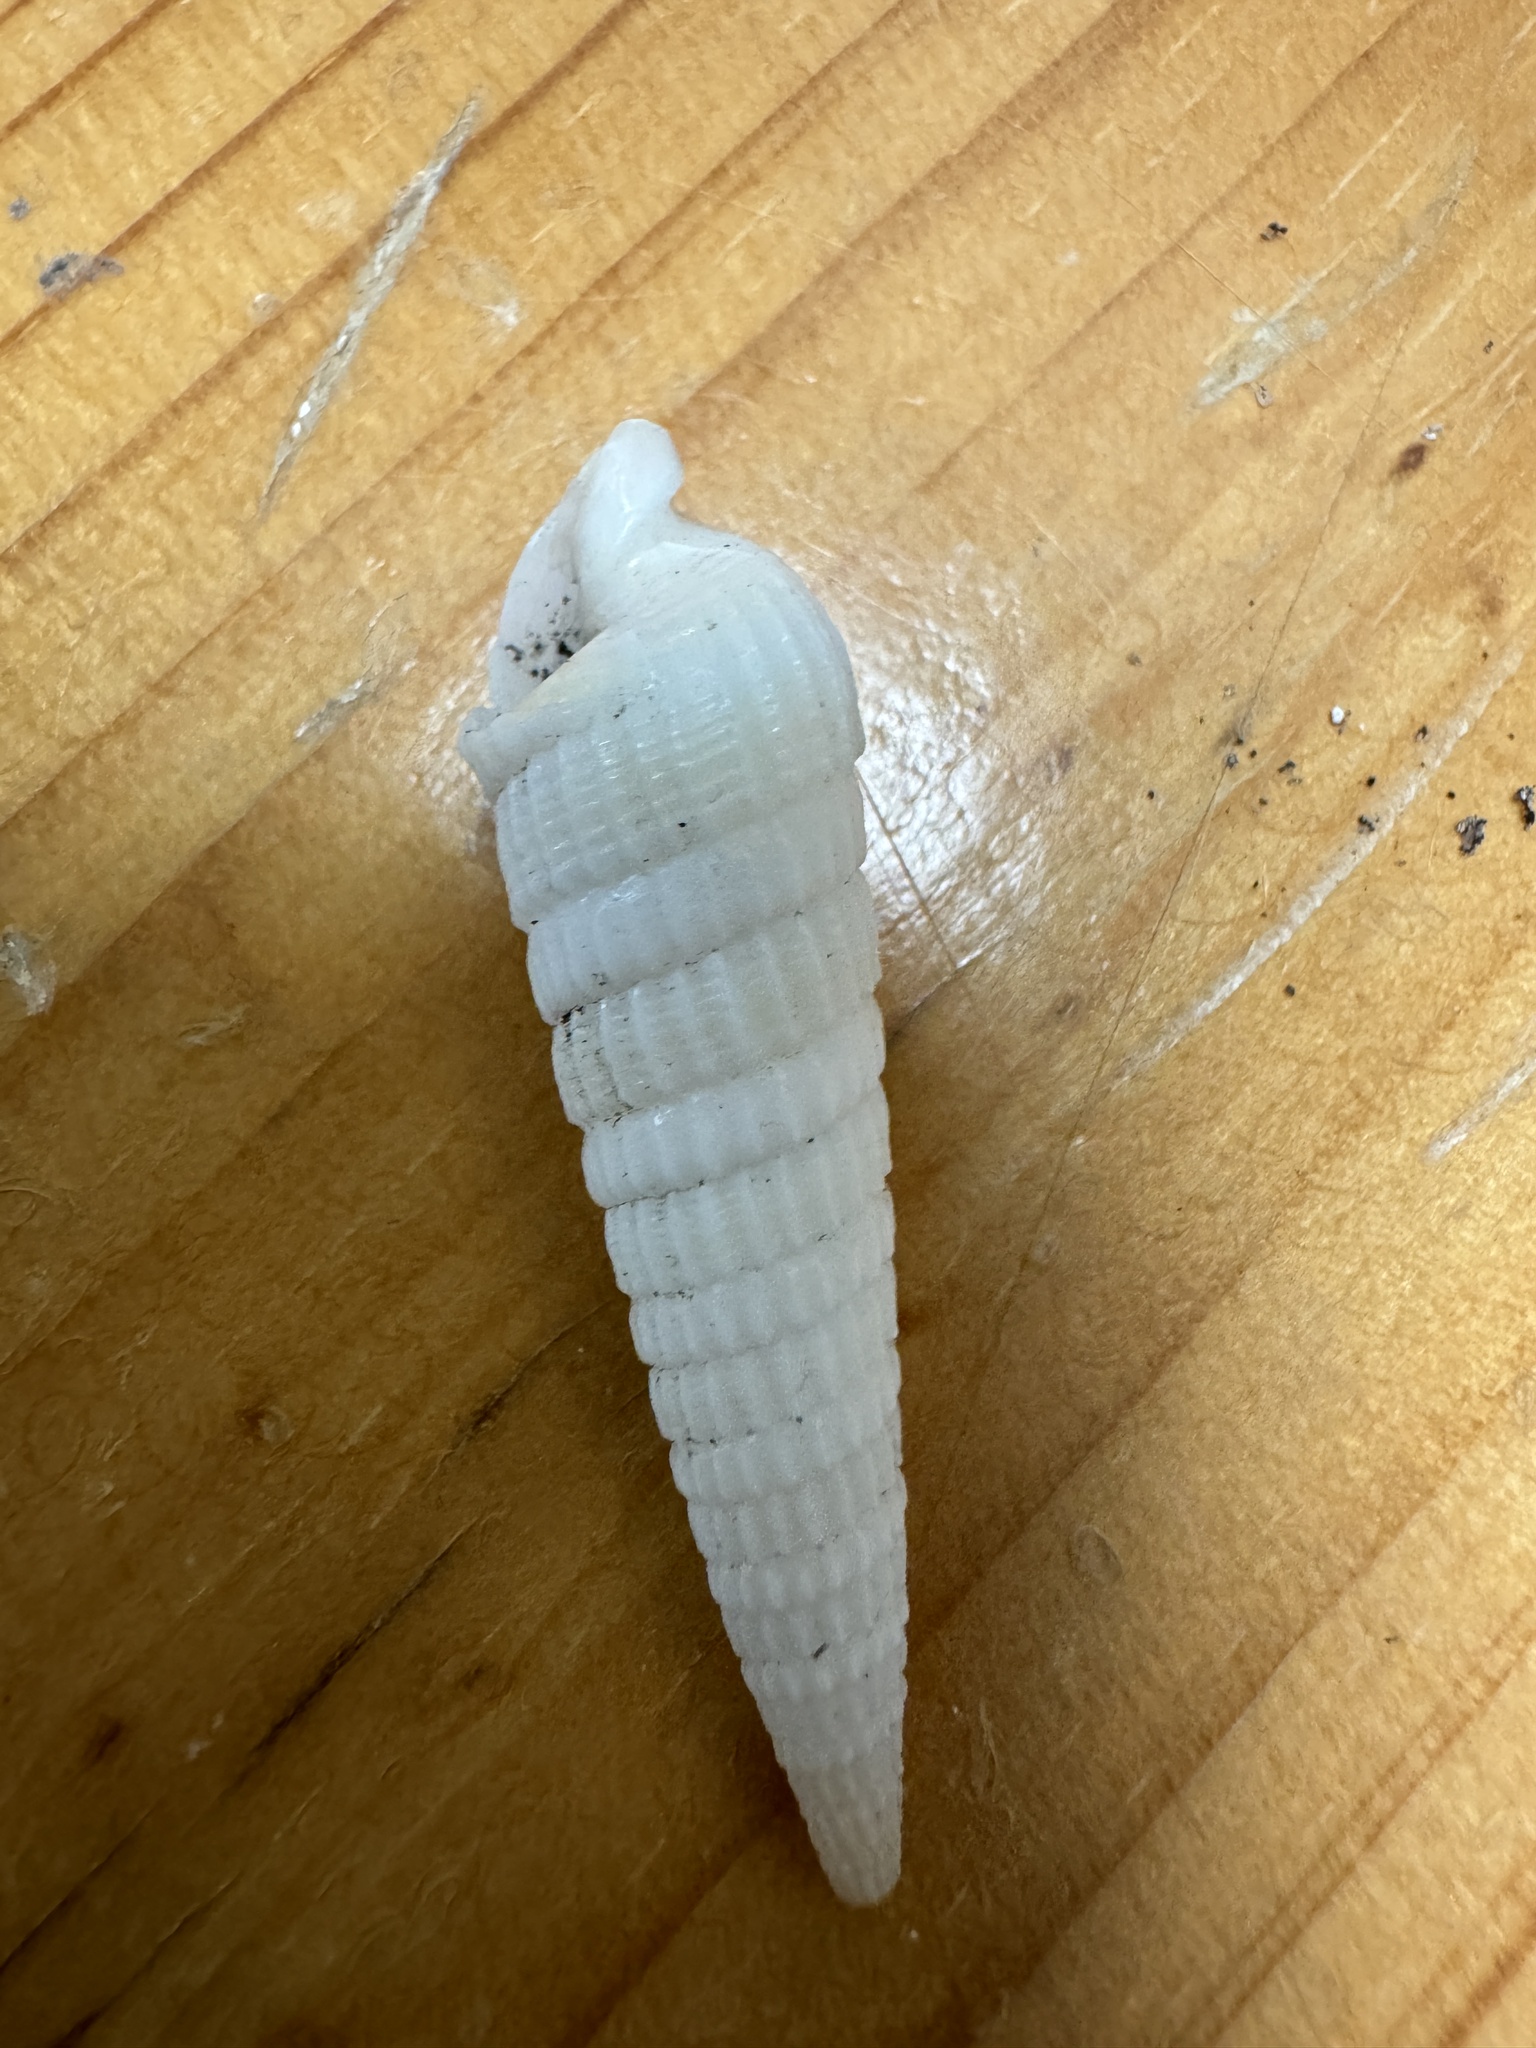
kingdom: Animalia
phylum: Mollusca
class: Gastropoda
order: Neogastropoda
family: Terebridae
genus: Neoterebra
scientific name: Neoterebra dislocata
